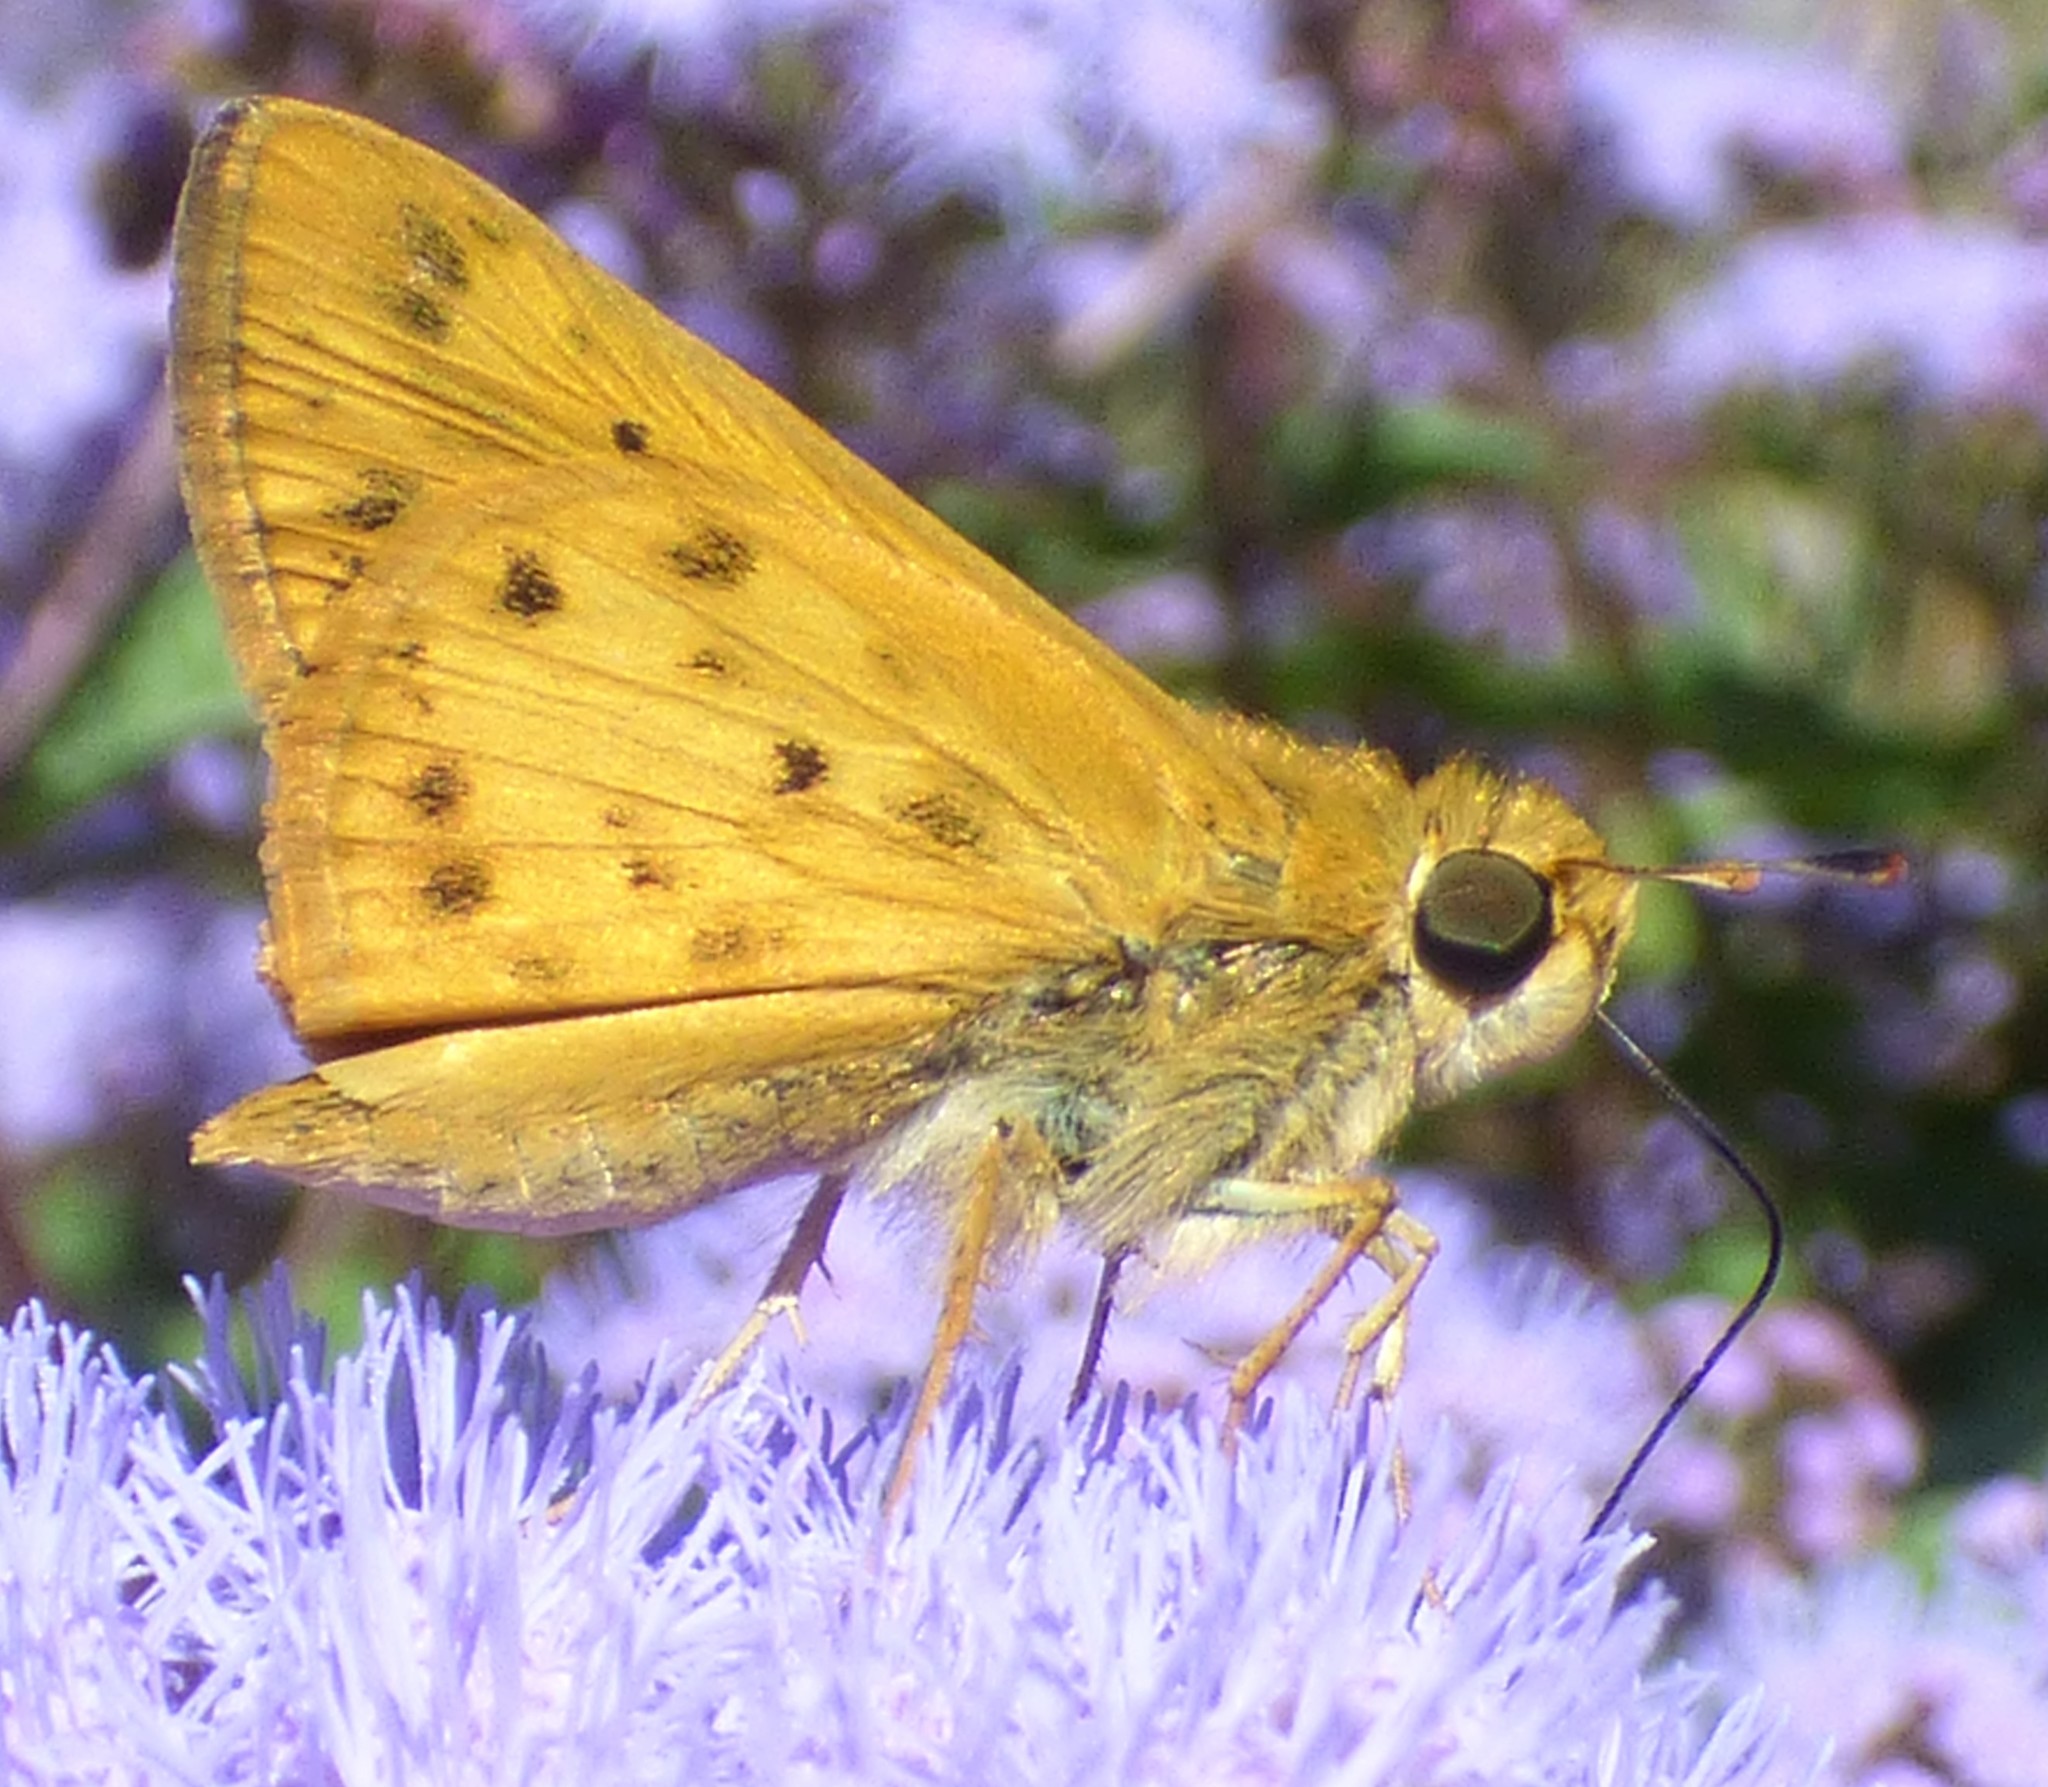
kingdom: Animalia
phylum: Arthropoda
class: Insecta
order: Lepidoptera
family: Hesperiidae
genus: Hylephila
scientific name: Hylephila phyleus
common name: Fiery skipper
